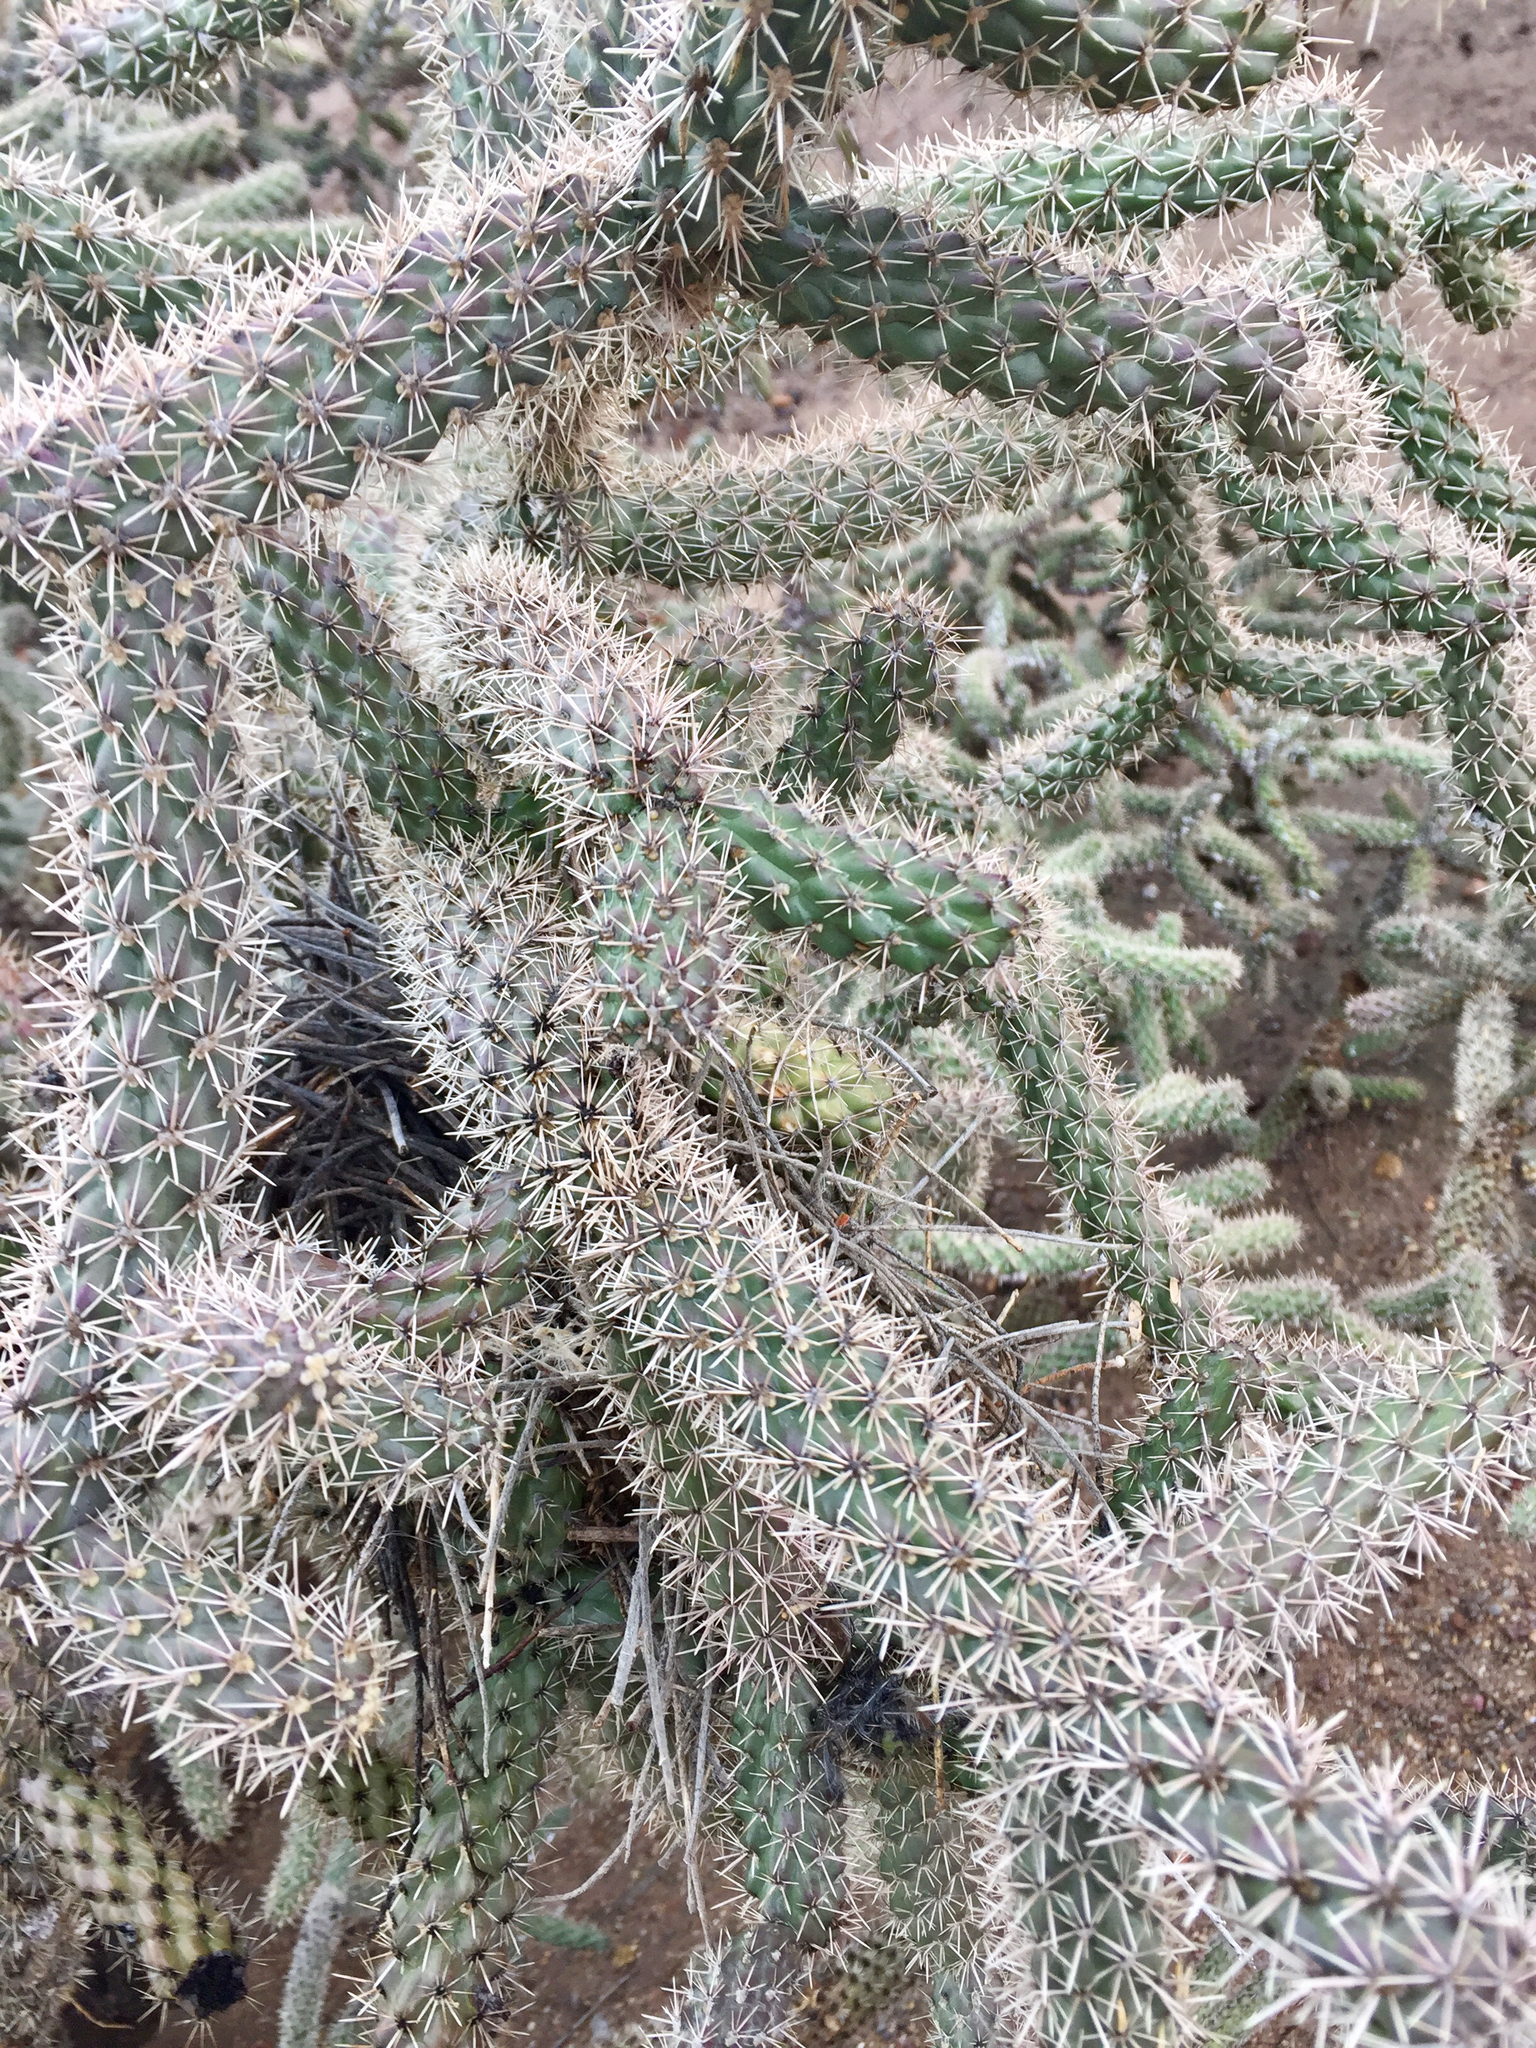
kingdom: Plantae
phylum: Tracheophyta
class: Magnoliopsida
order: Caryophyllales
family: Cactaceae
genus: Cylindropuntia
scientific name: Cylindropuntia imbricata
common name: Candelabrum cactus
